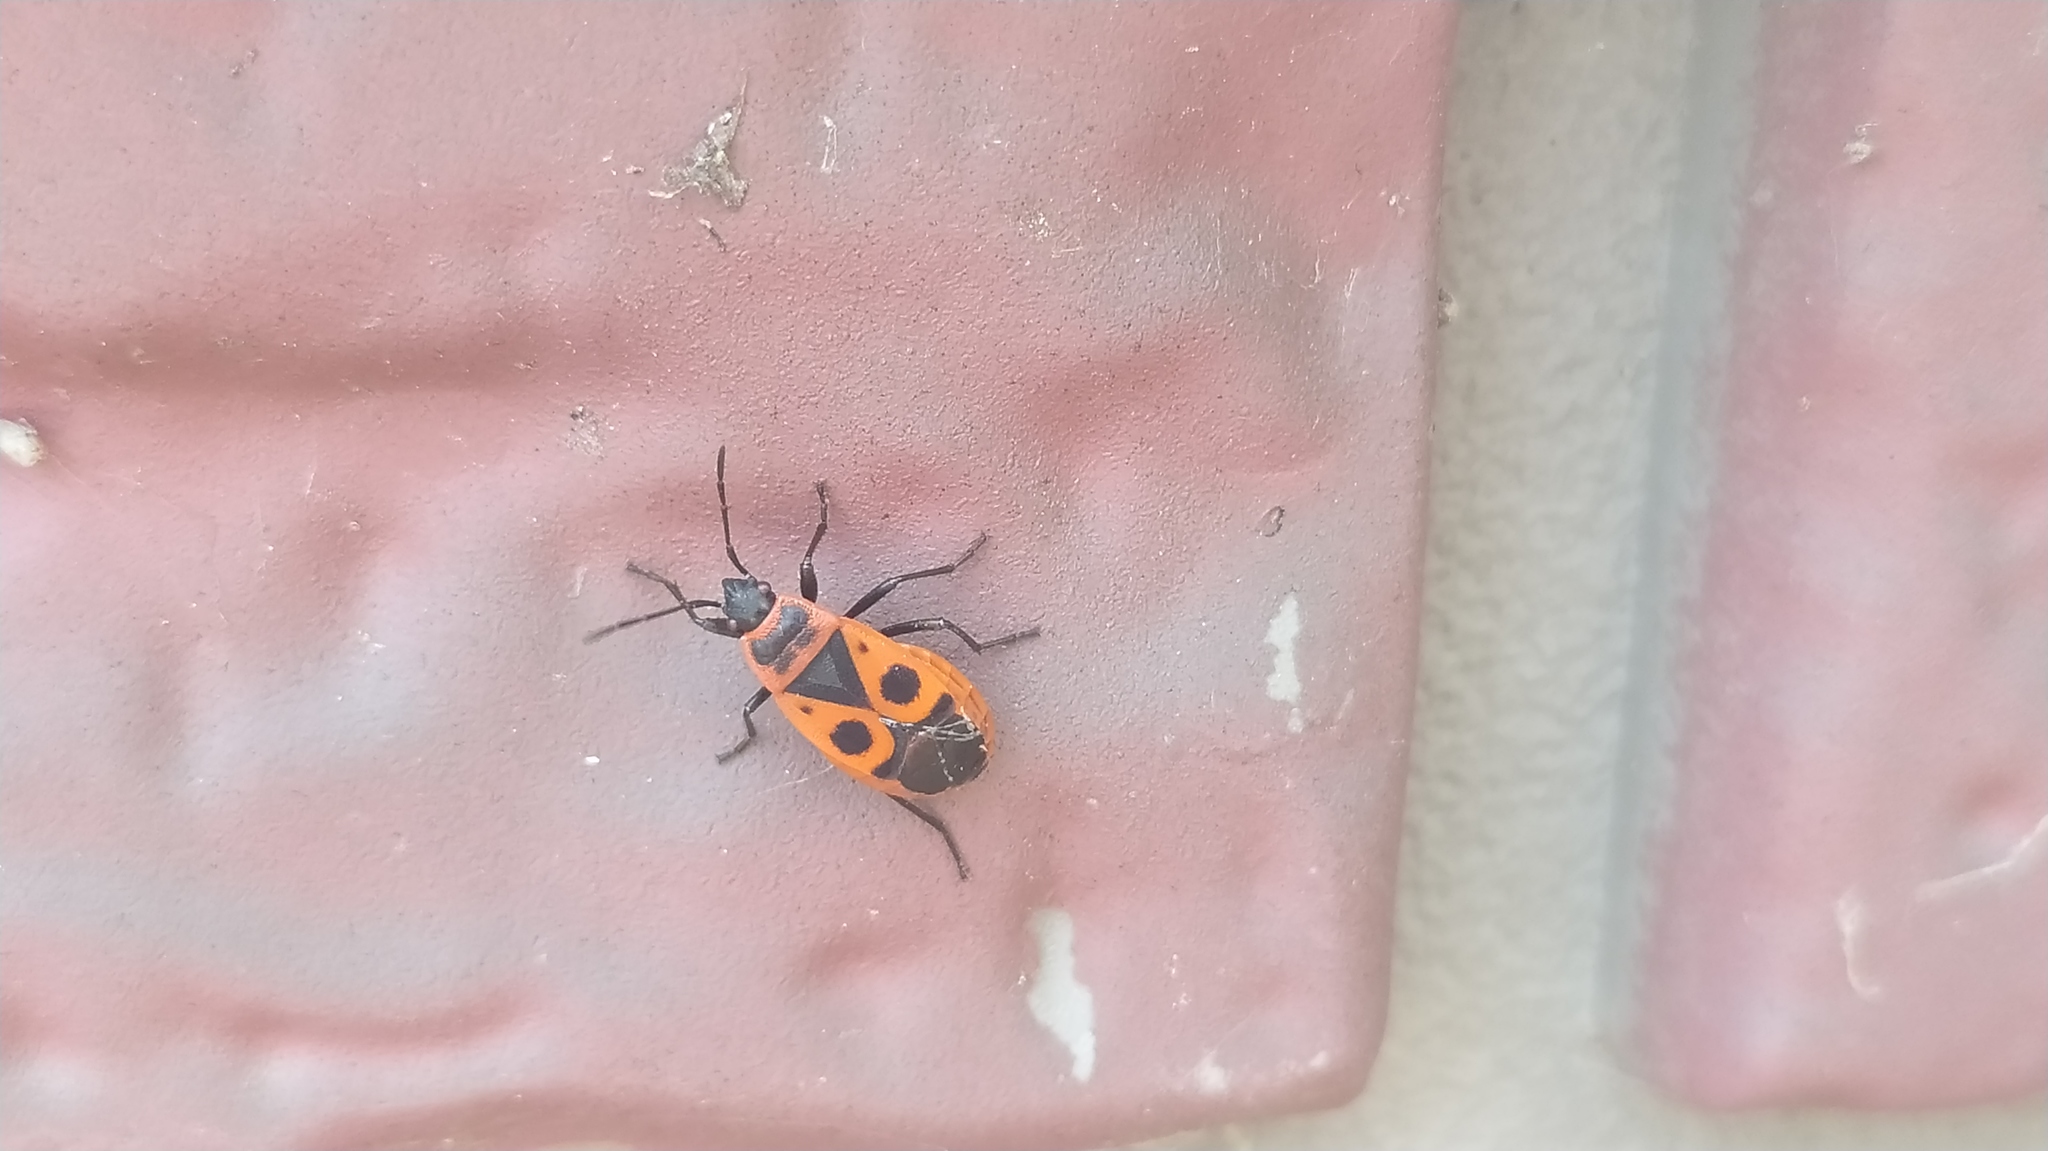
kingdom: Animalia
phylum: Arthropoda
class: Insecta
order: Hemiptera
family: Pyrrhocoridae
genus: Pyrrhocoris
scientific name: Pyrrhocoris apterus
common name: Firebug
